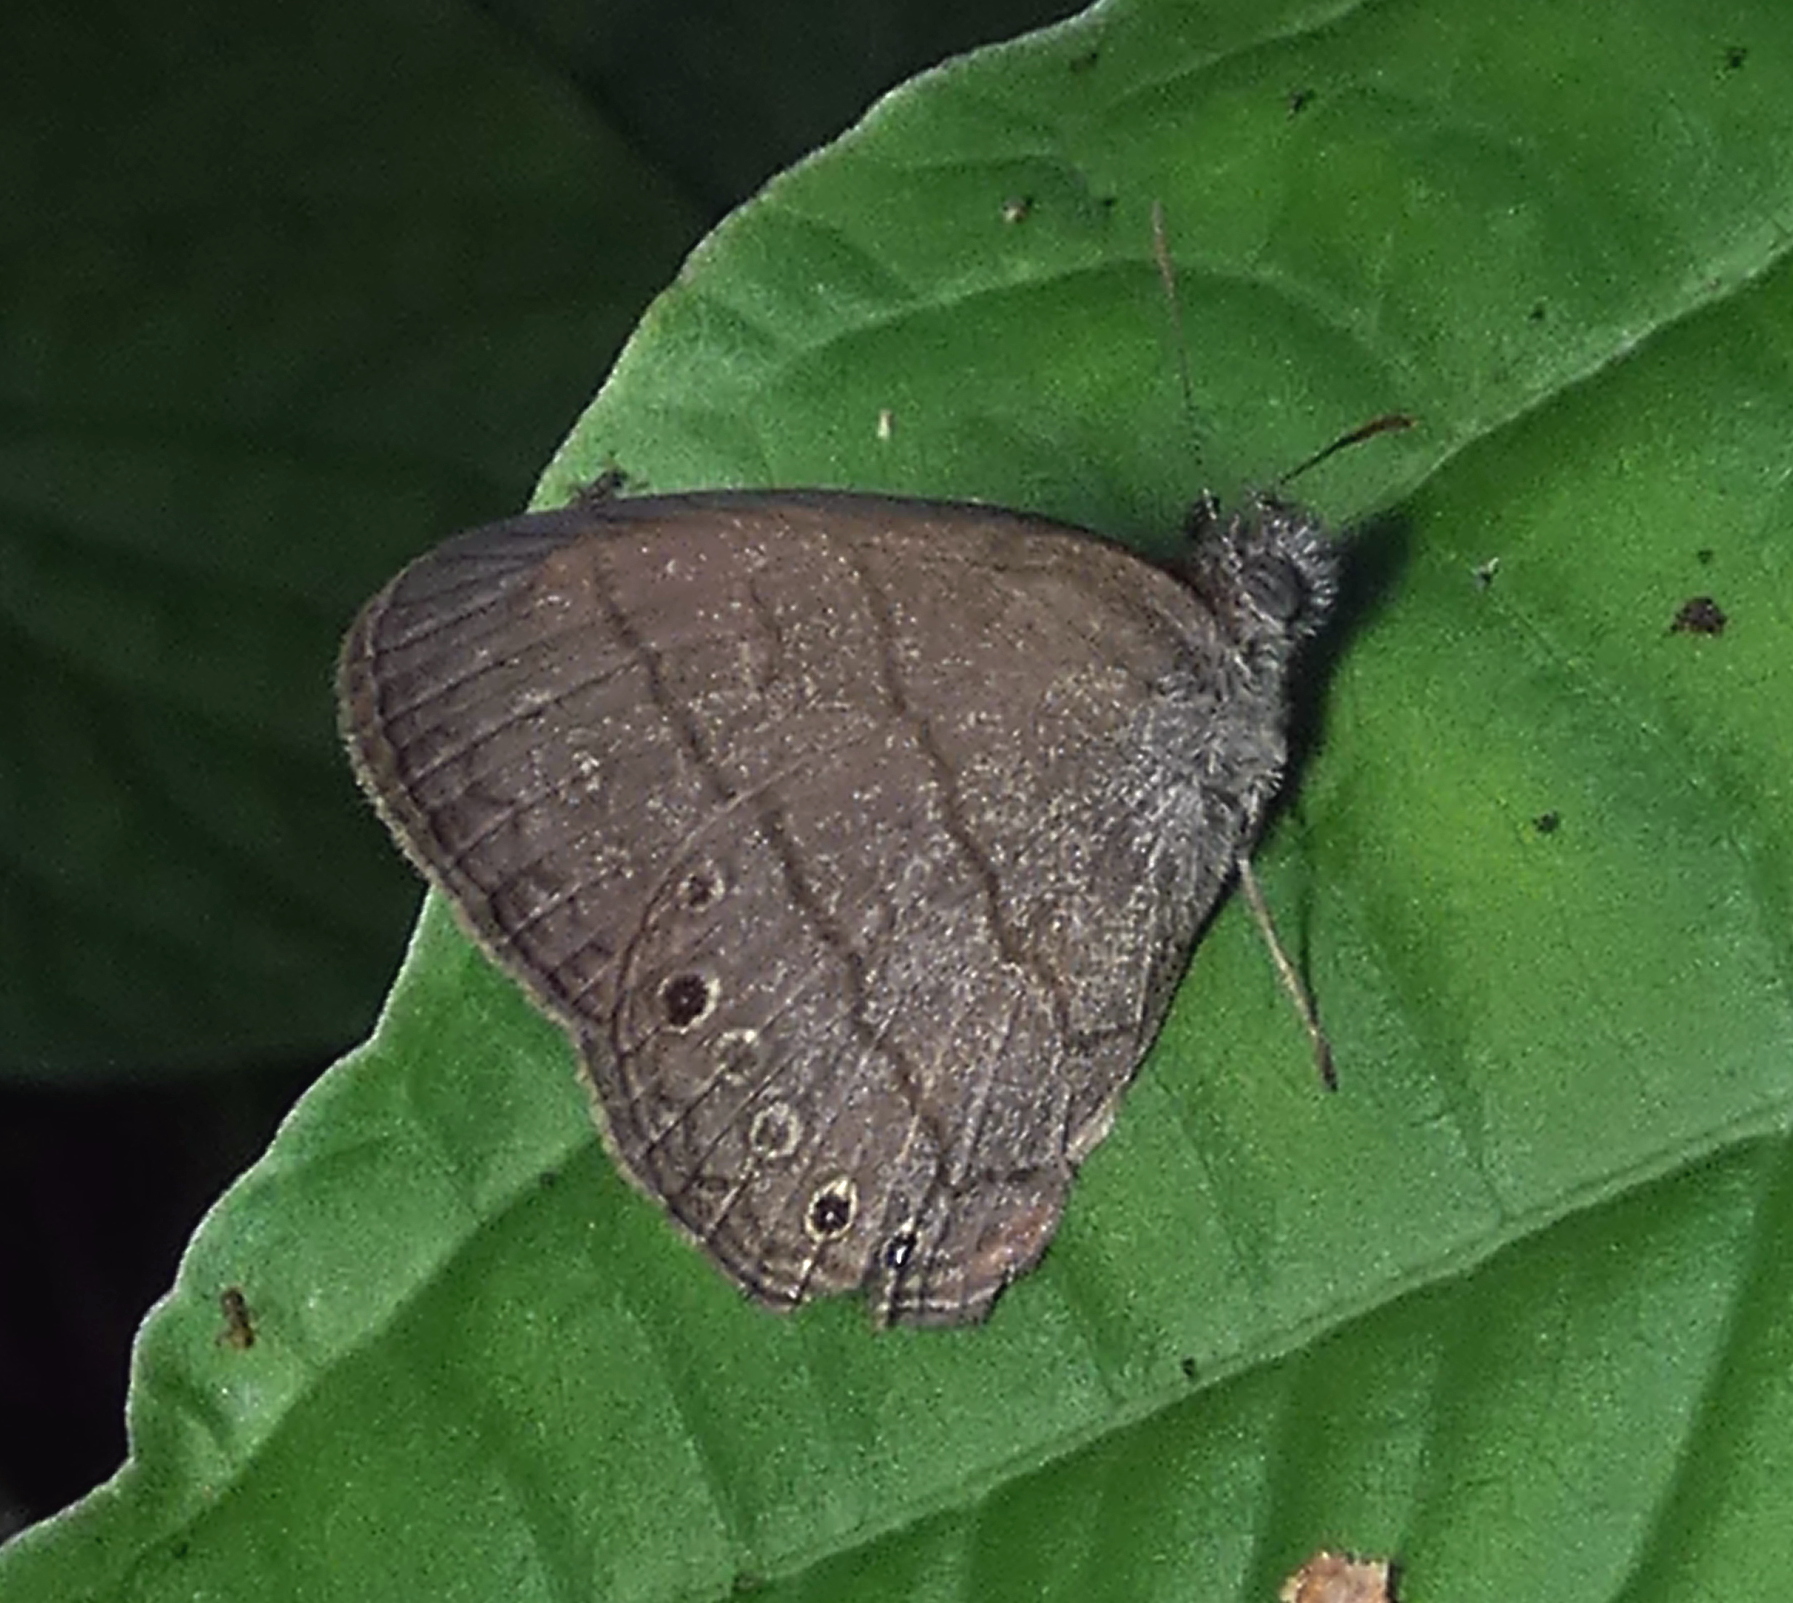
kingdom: Animalia
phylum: Arthropoda
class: Insecta
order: Lepidoptera
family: Nymphalidae
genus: Hermeuptychia
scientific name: Hermeuptychia hermes
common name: Hermes satyr
